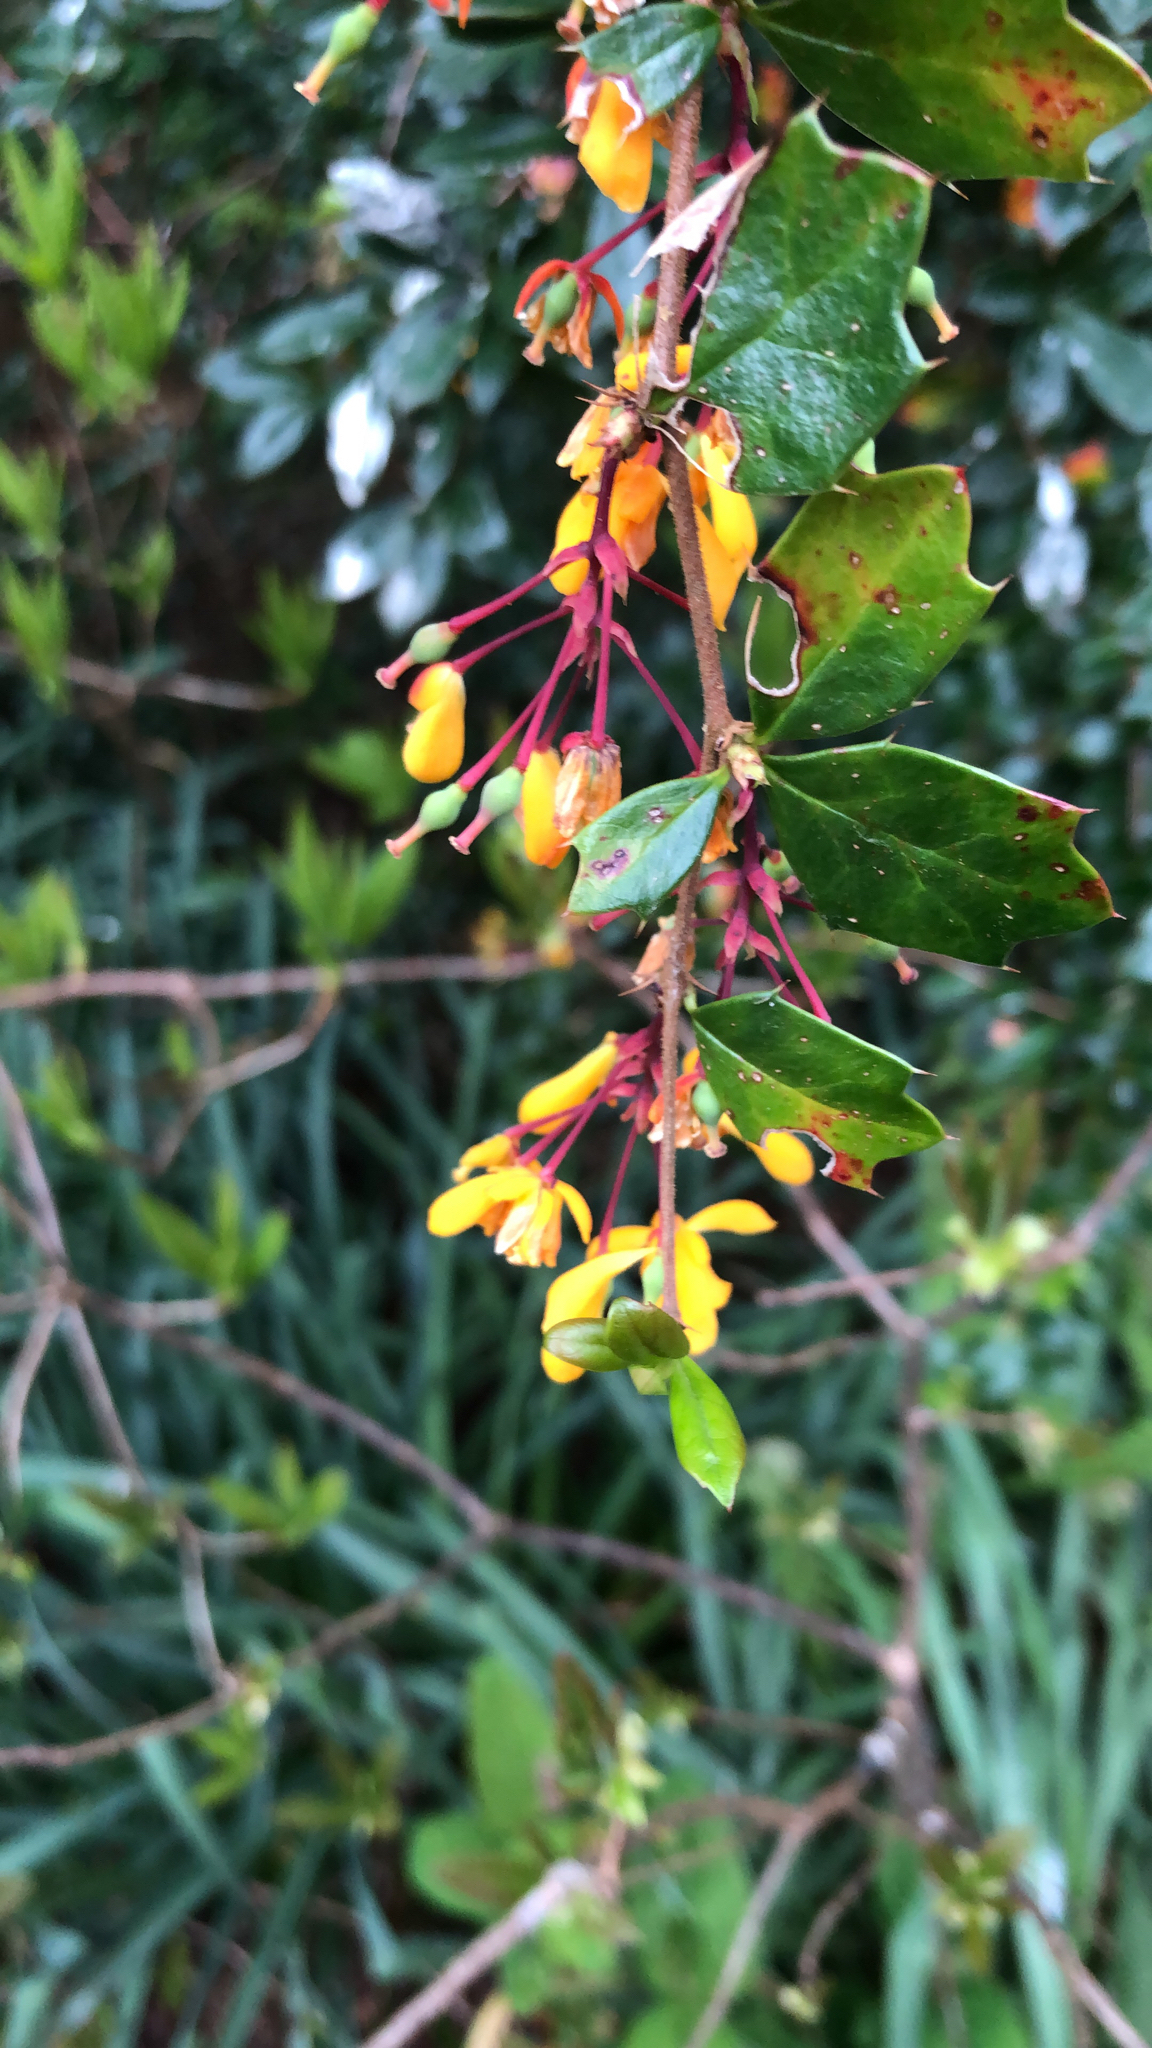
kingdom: Plantae
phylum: Tracheophyta
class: Magnoliopsida
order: Ranunculales
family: Berberidaceae
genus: Berberis
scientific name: Berberis darwinii
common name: Darwin's barberry
